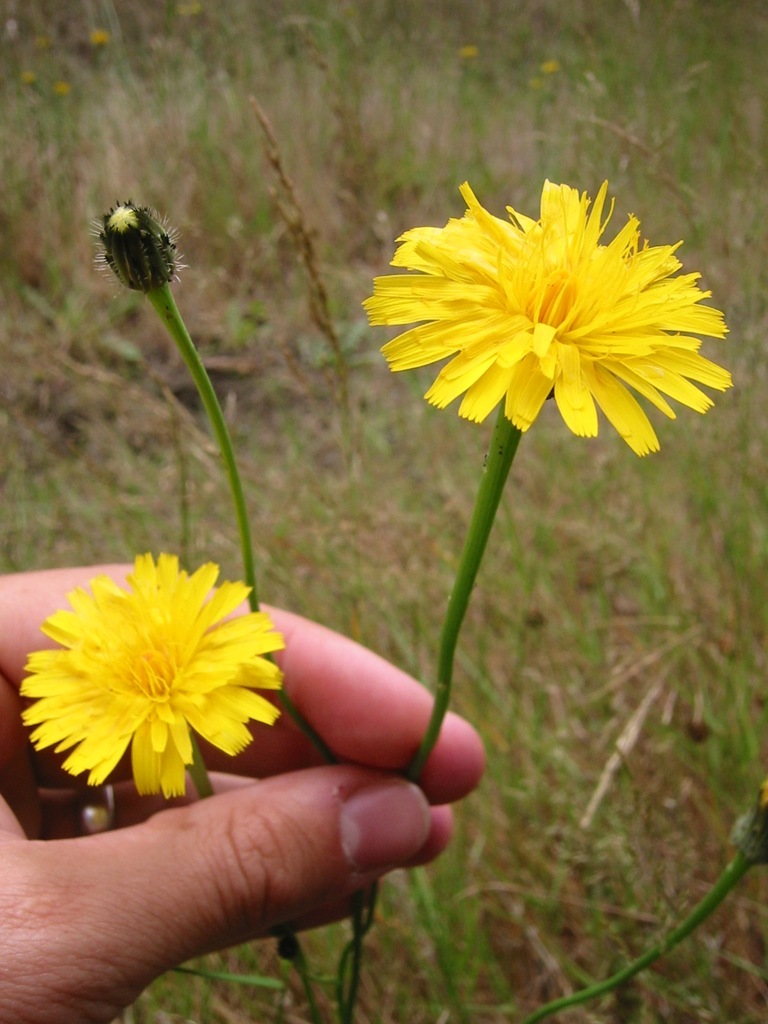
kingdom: Animalia
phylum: Arthropoda
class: Insecta
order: Hymenoptera
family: Cynipidae
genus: Phanacis
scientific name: Phanacis hypochoeridis
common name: Gall wasp
